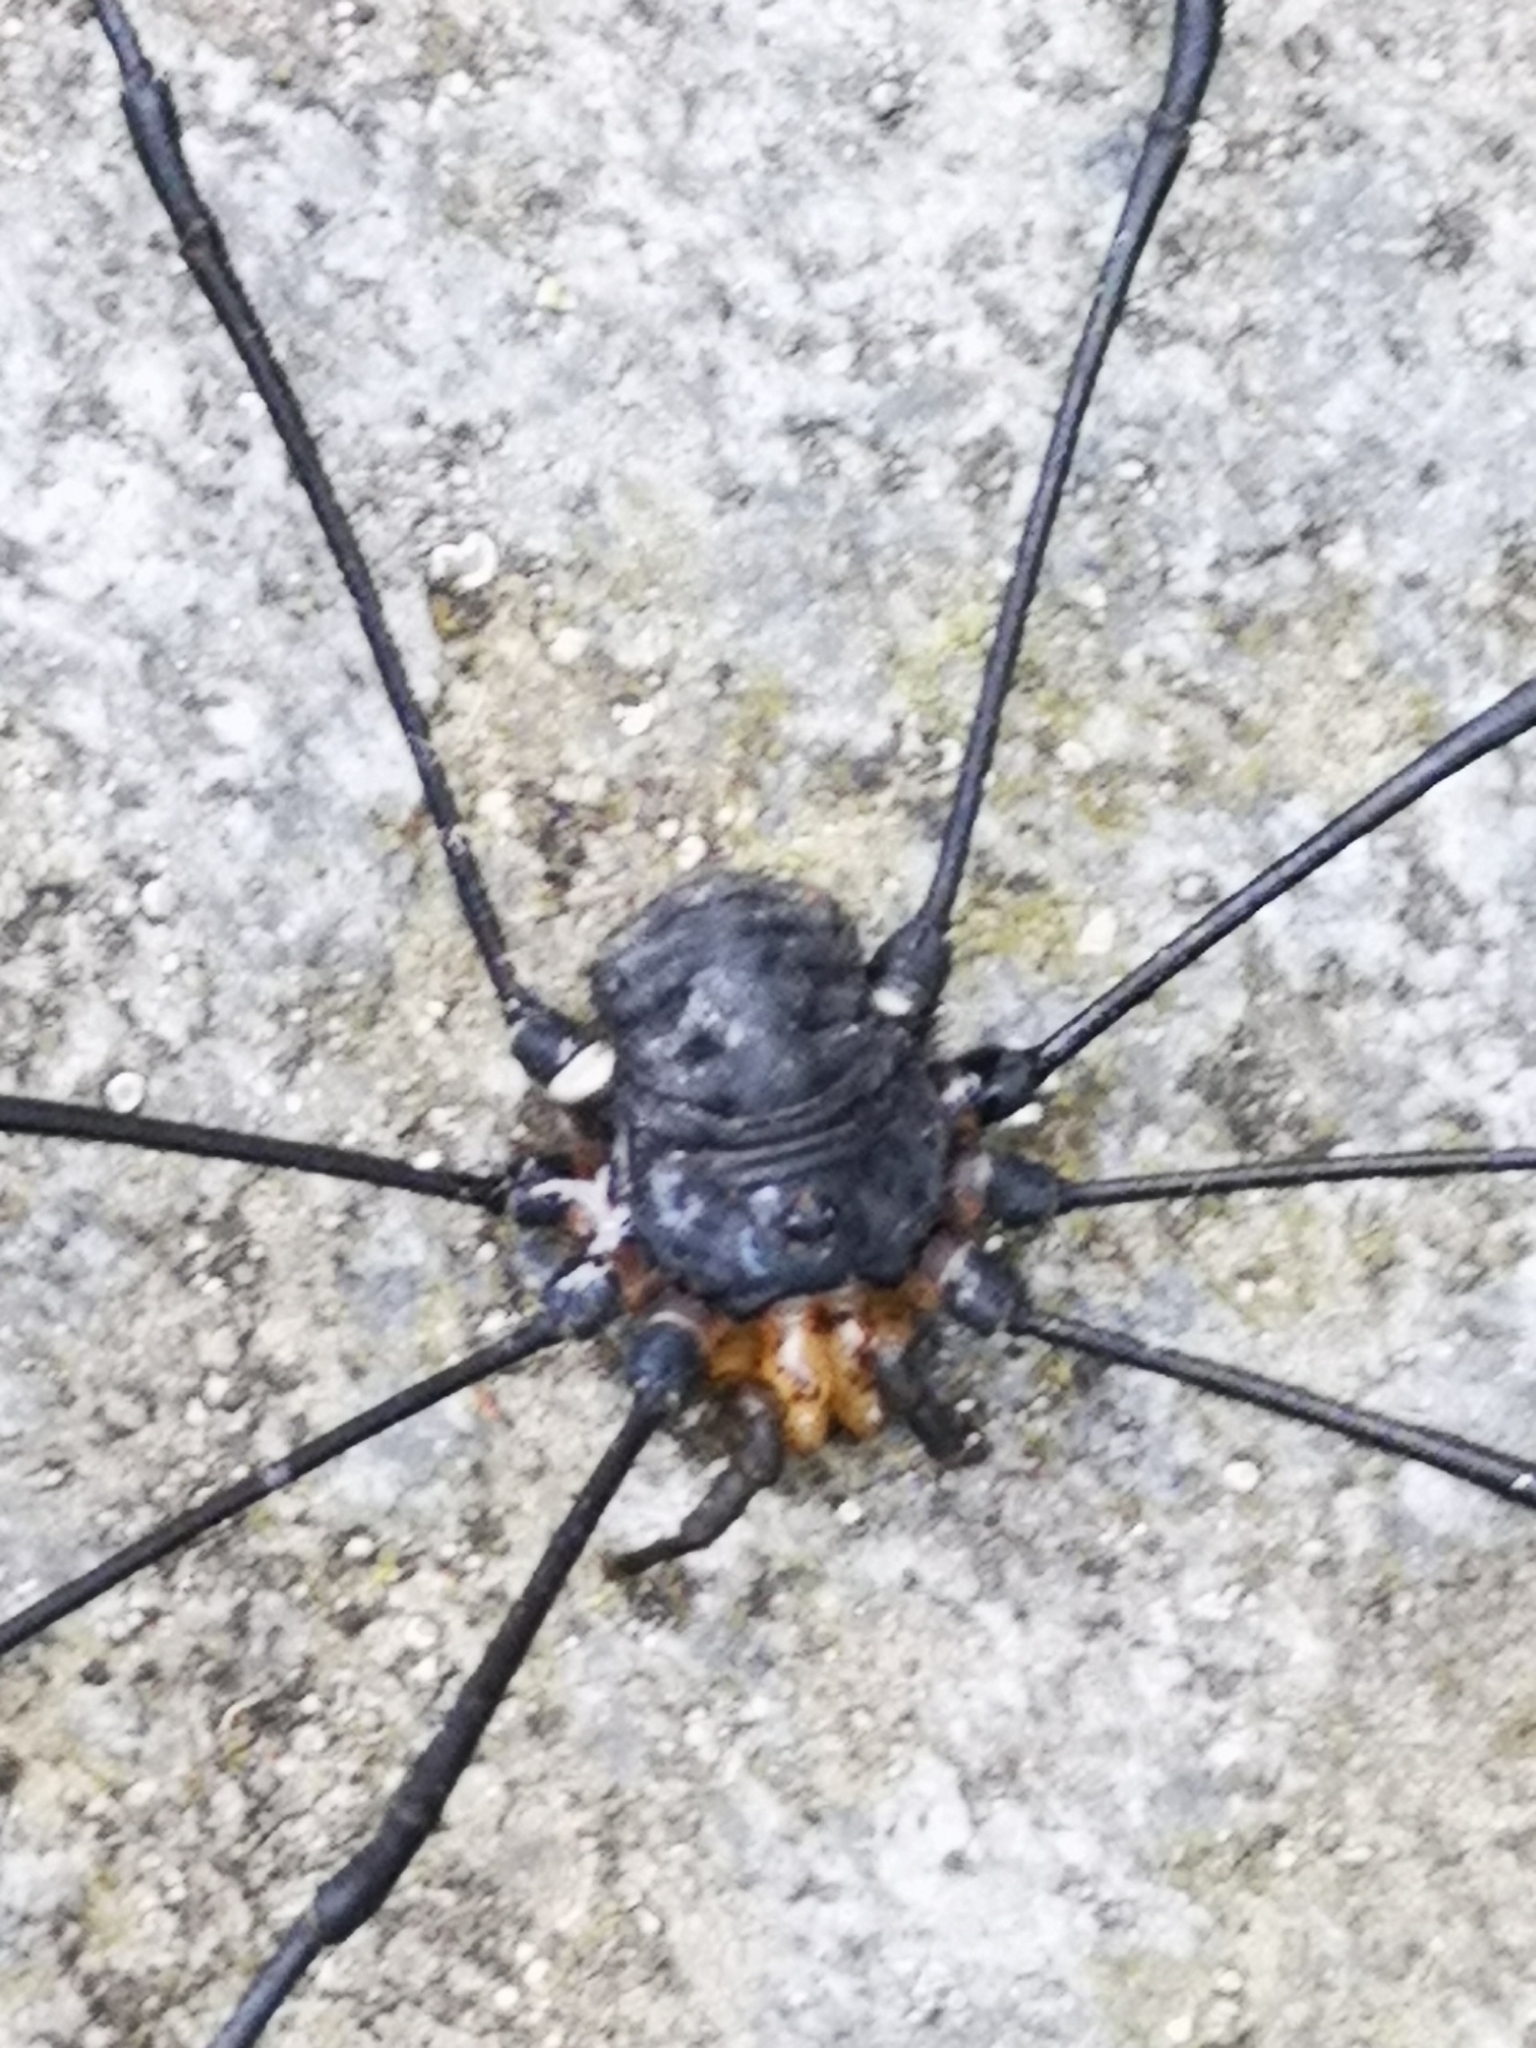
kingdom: Animalia
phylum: Arthropoda
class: Arachnida
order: Opiliones
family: Sclerosomatidae
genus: Gyas
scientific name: Gyas titanus
